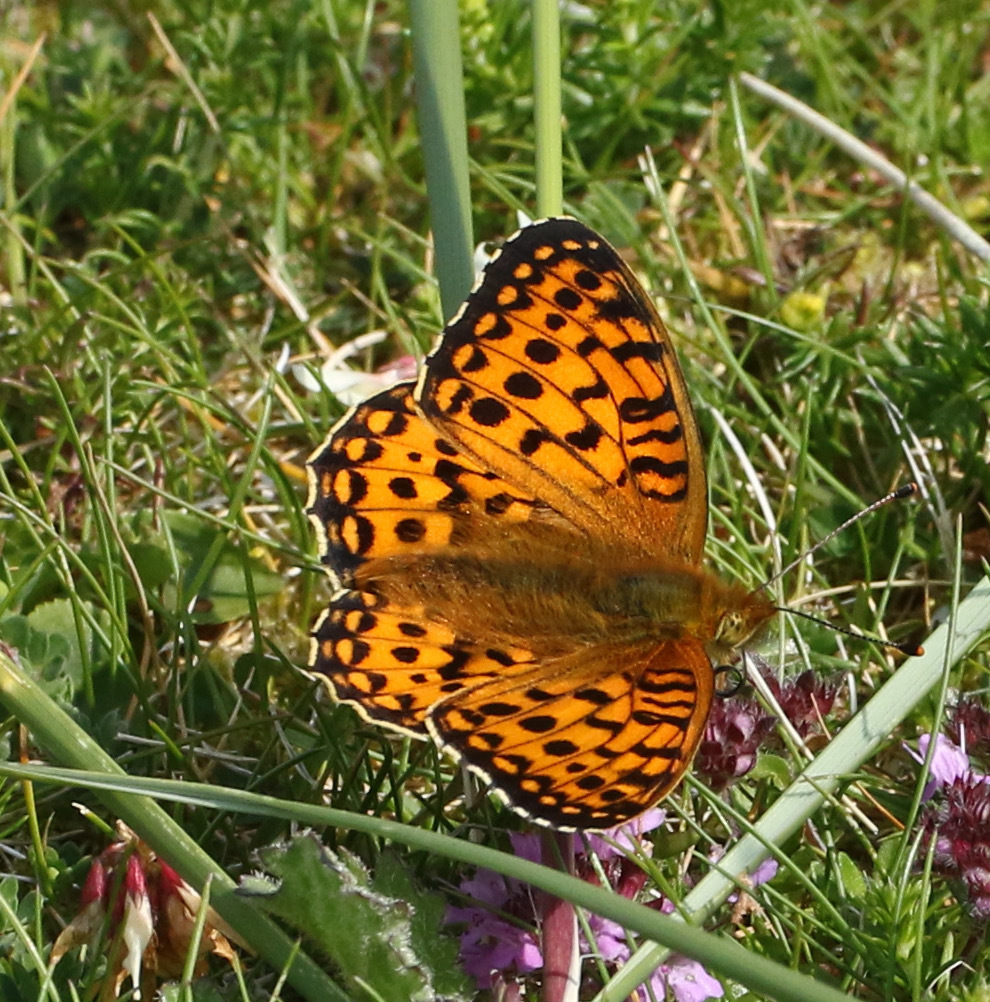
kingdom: Animalia
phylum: Arthropoda
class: Insecta
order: Lepidoptera
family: Nymphalidae
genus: Speyeria
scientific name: Speyeria aglaja
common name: Dark green fritillary
